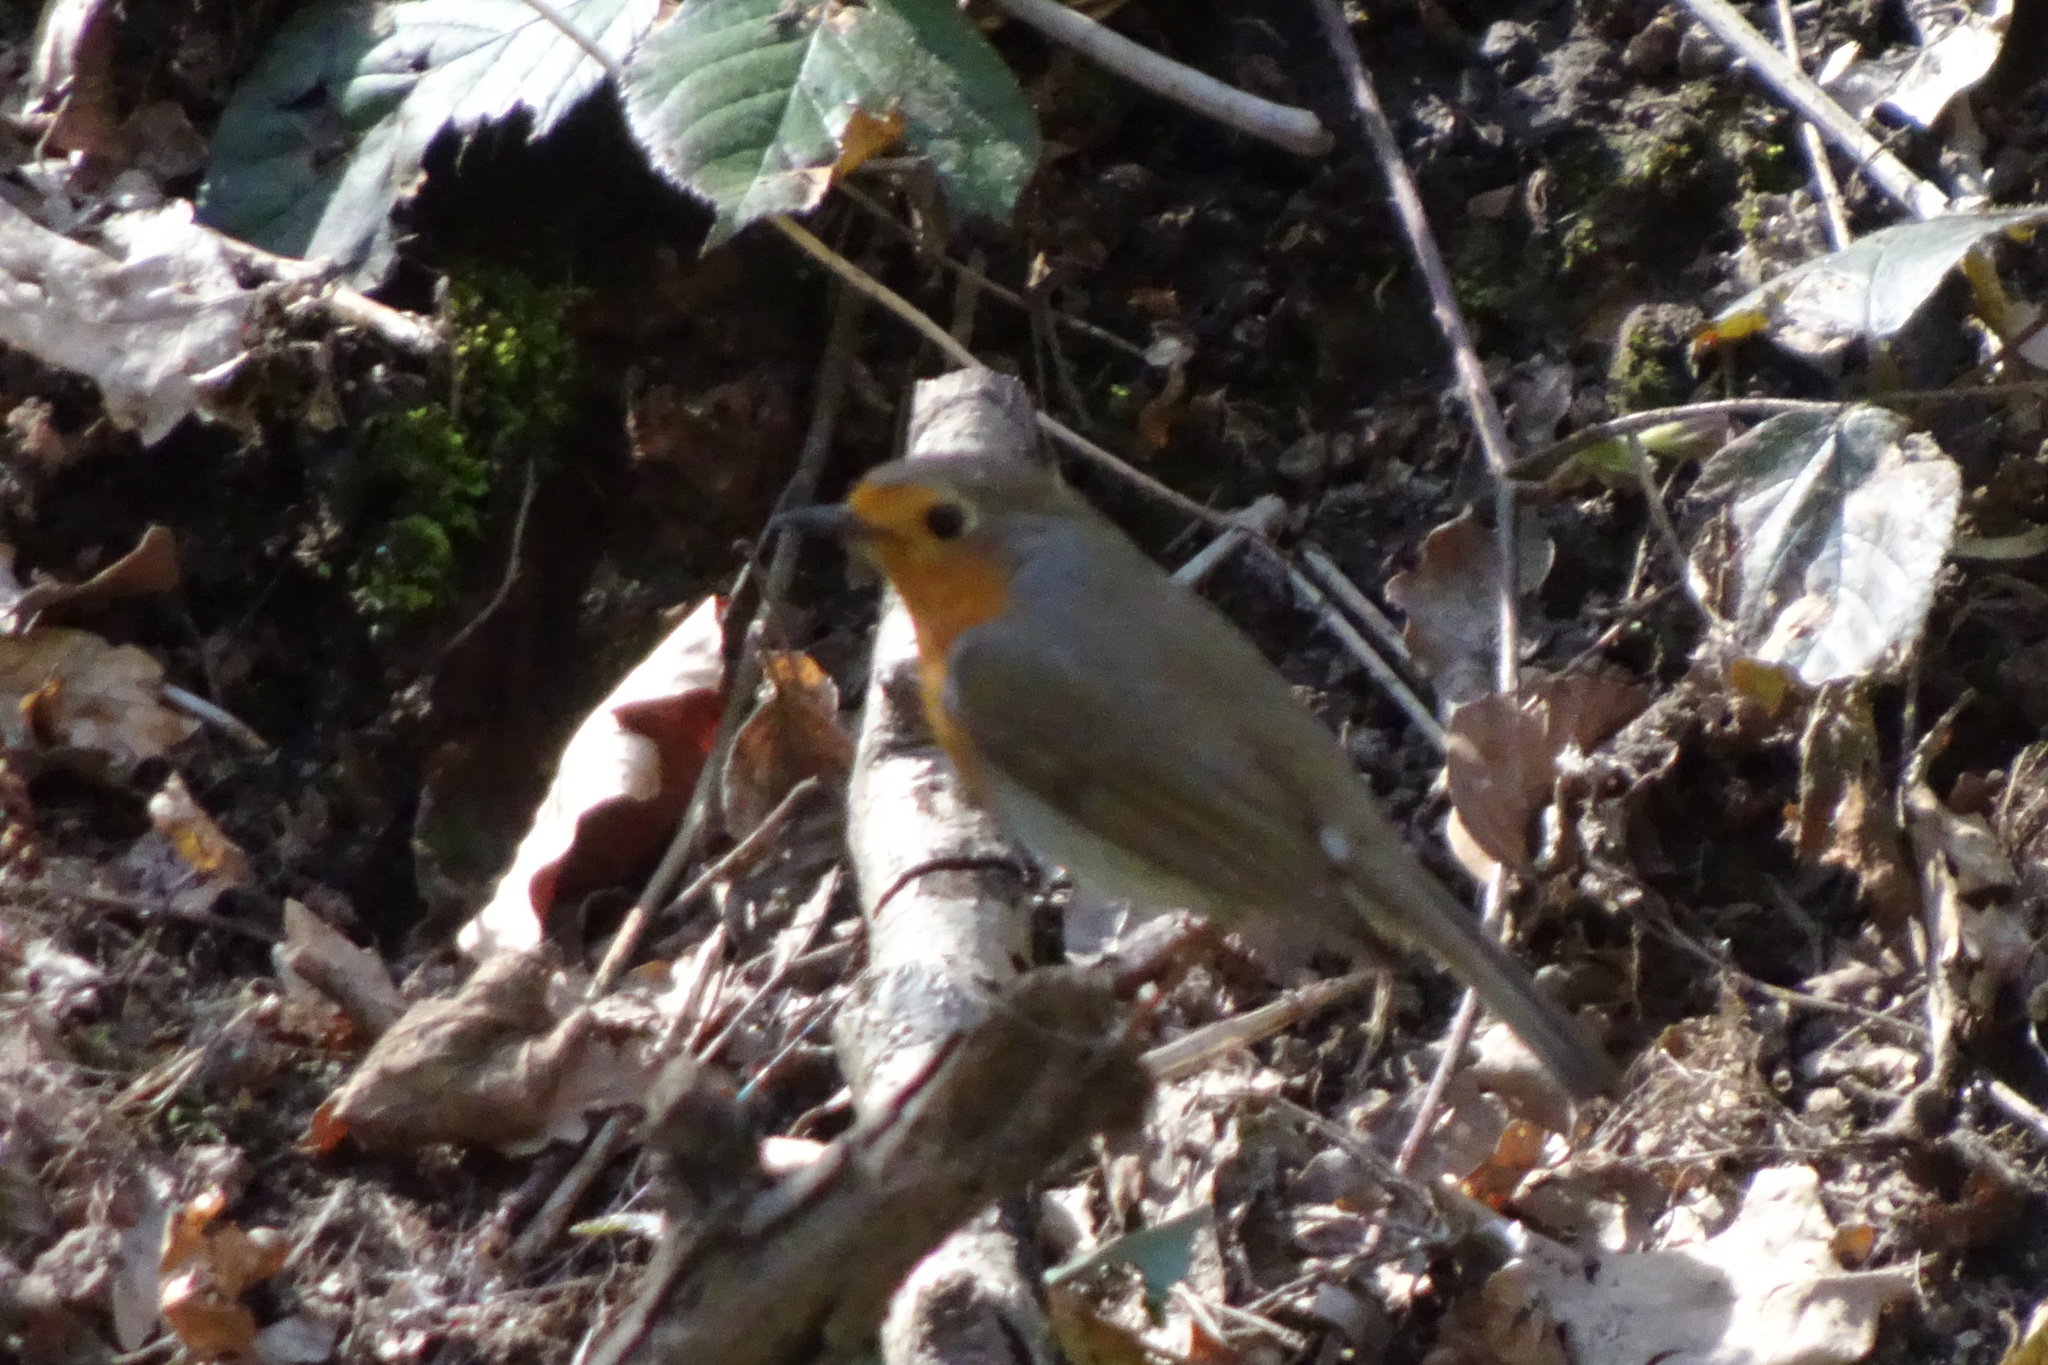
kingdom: Animalia
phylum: Chordata
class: Aves
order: Passeriformes
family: Muscicapidae
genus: Erithacus
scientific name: Erithacus rubecula
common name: European robin
